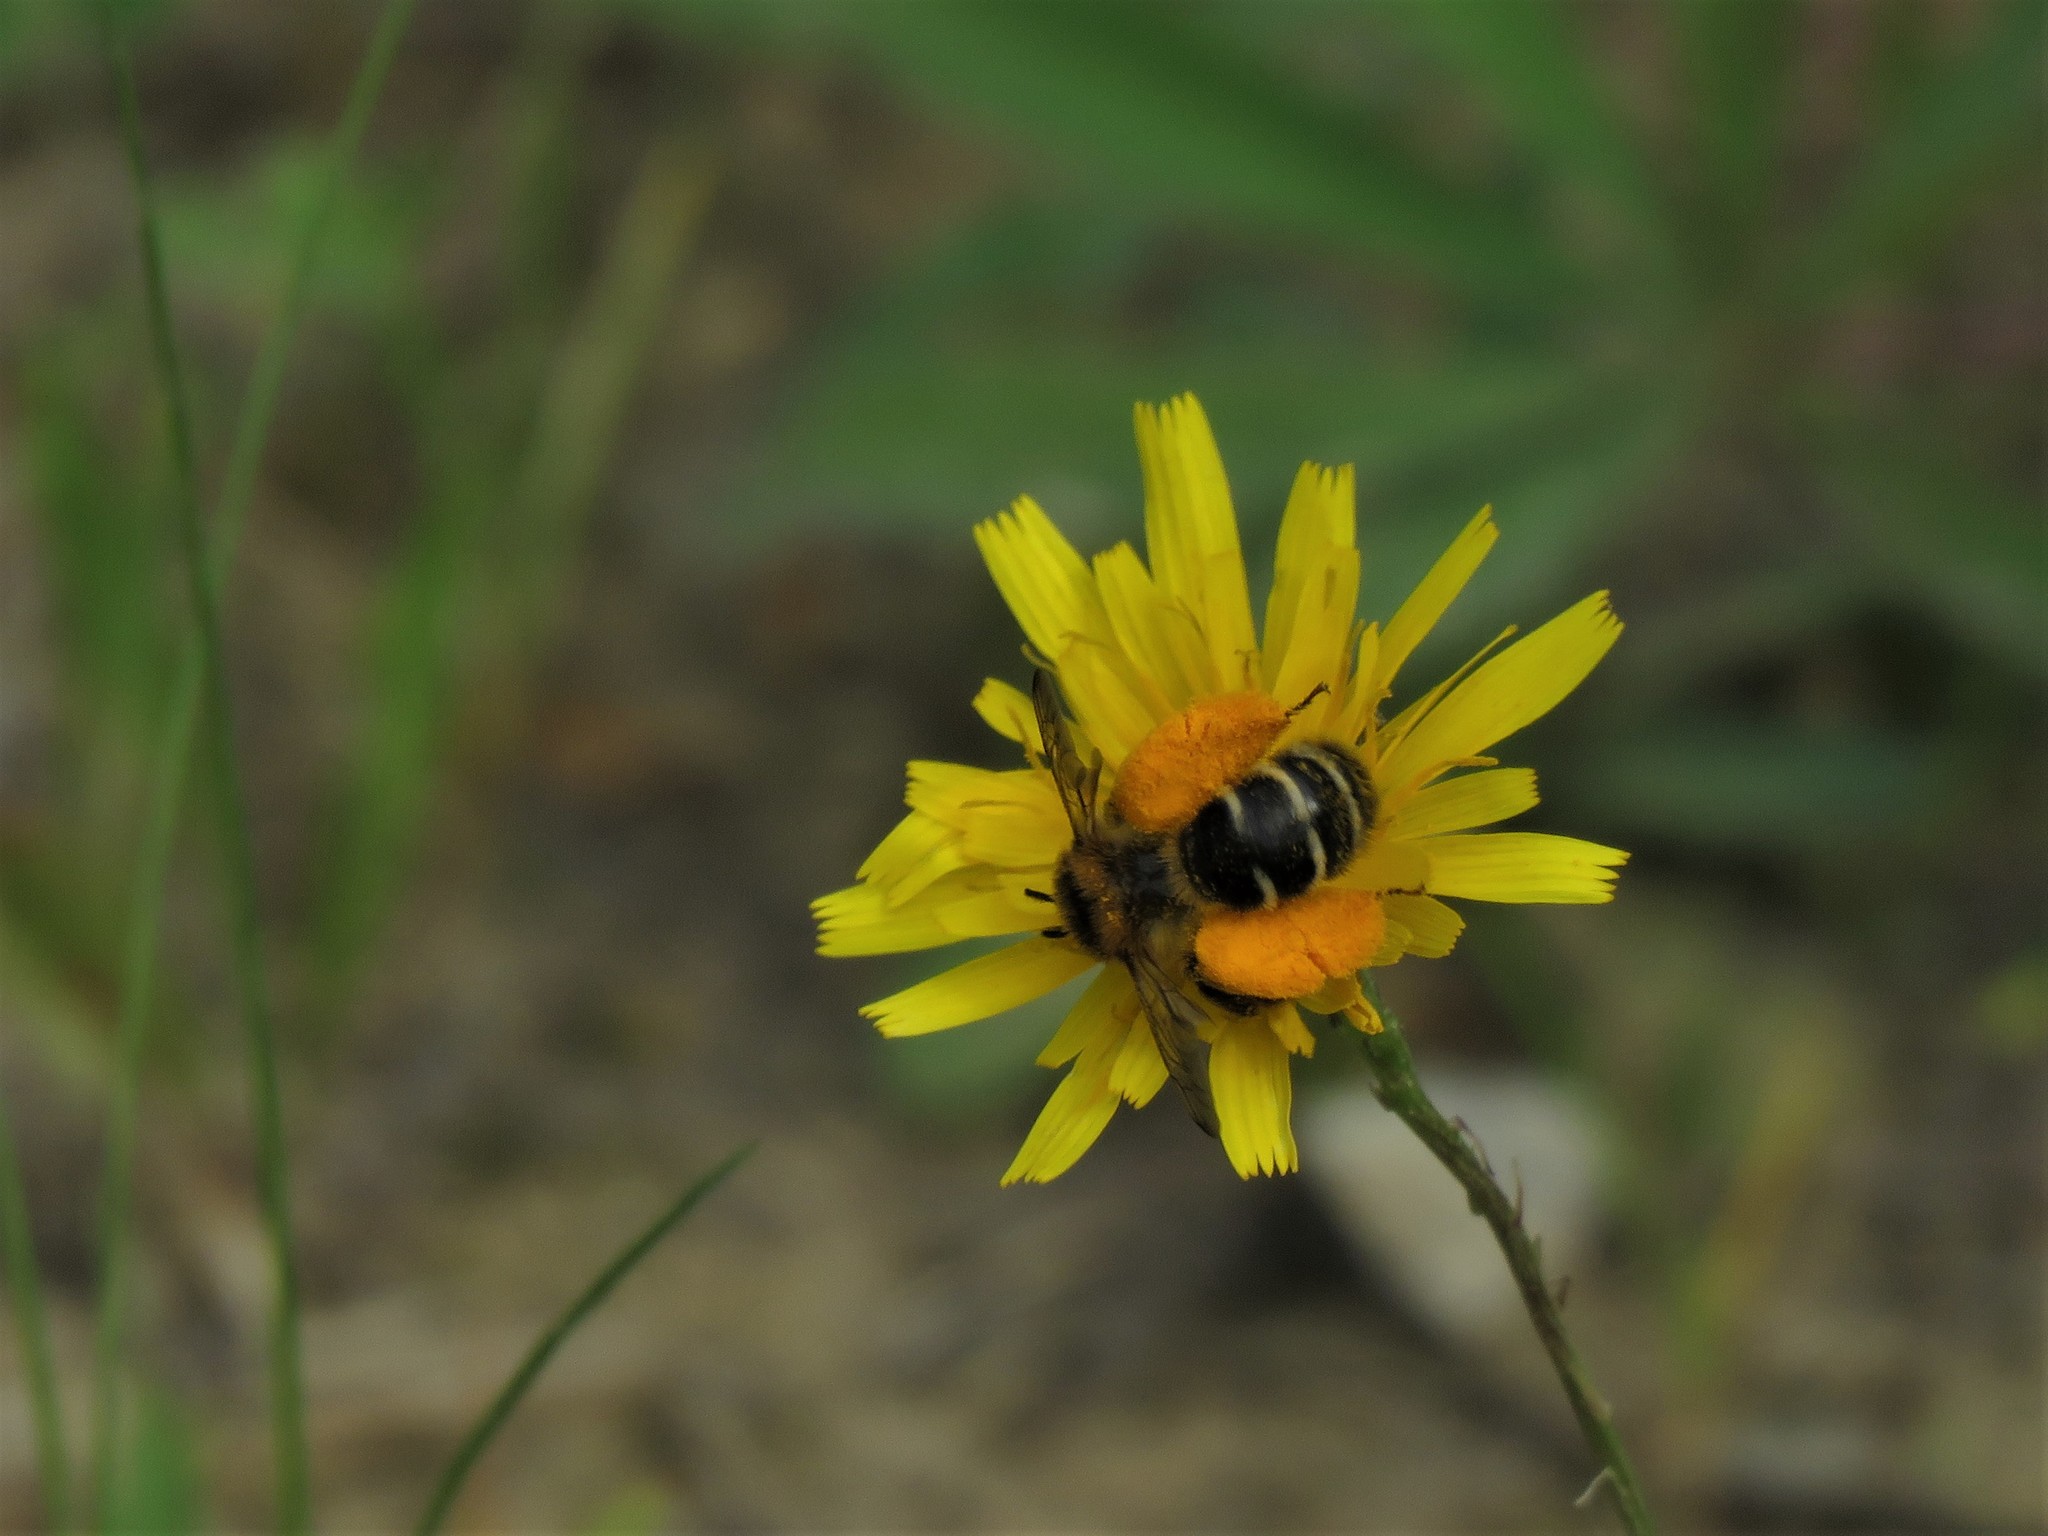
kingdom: Animalia
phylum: Arthropoda
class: Insecta
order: Hymenoptera
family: Melittidae
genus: Dasypoda
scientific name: Dasypoda hirtipes
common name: Pantaloon bee
